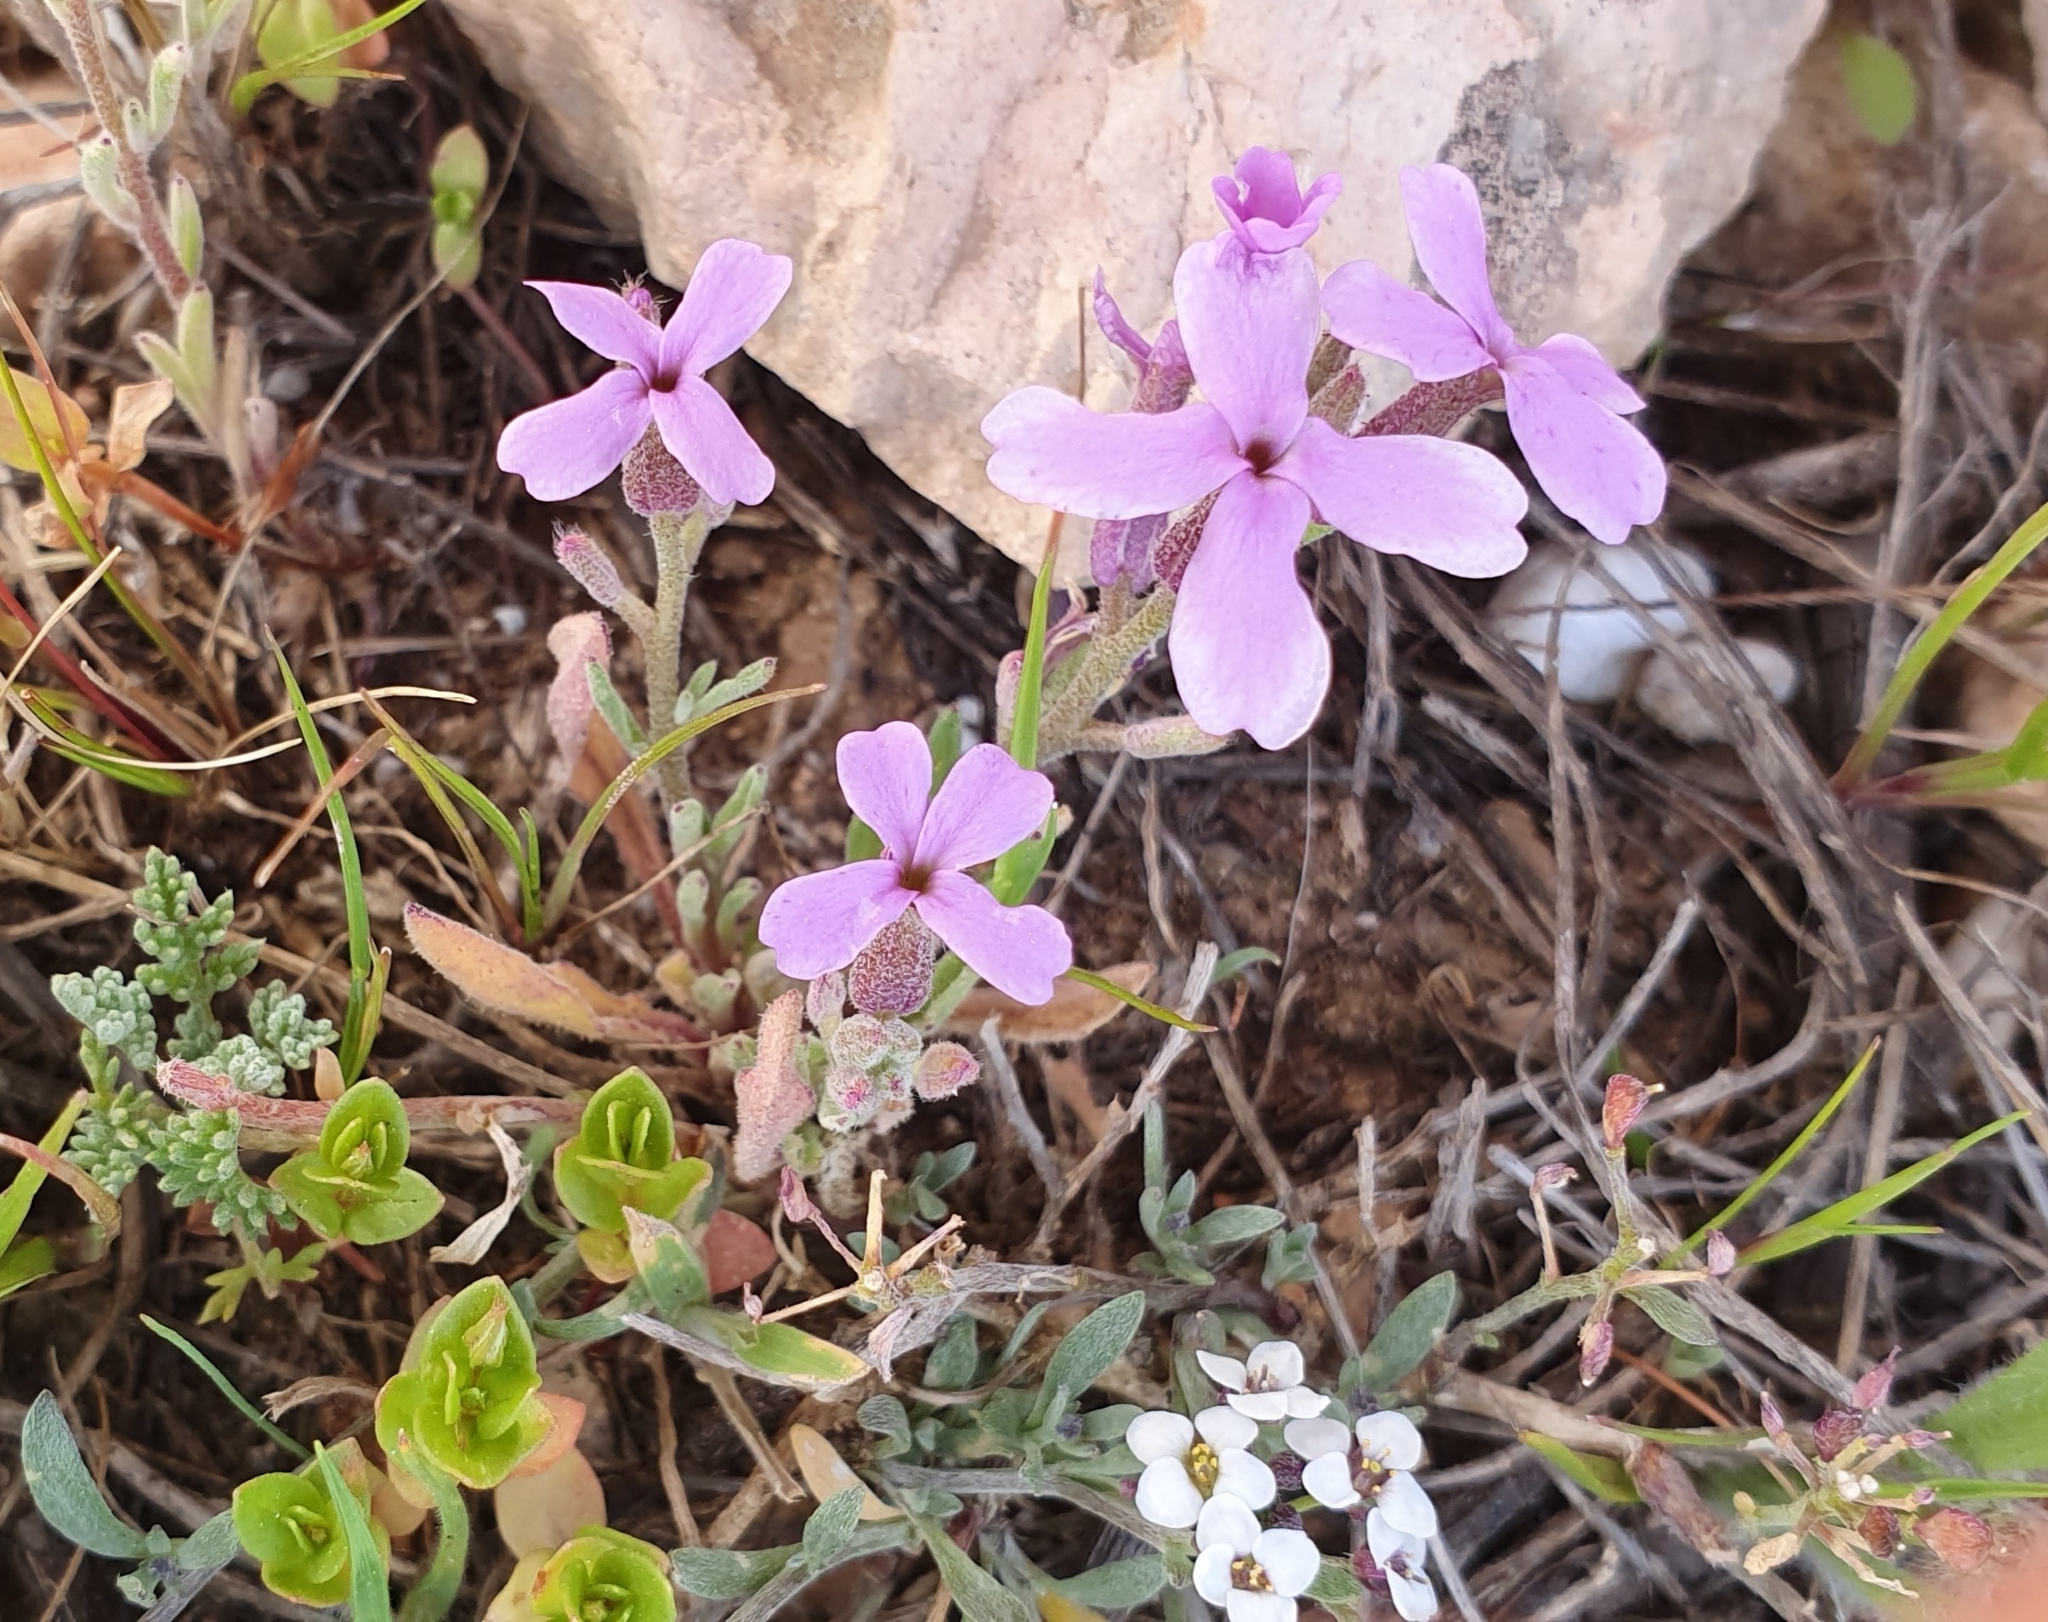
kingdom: Plantae
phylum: Tracheophyta
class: Magnoliopsida
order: Brassicales
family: Brassicaceae
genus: Matthiola
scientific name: Matthiola lunata
